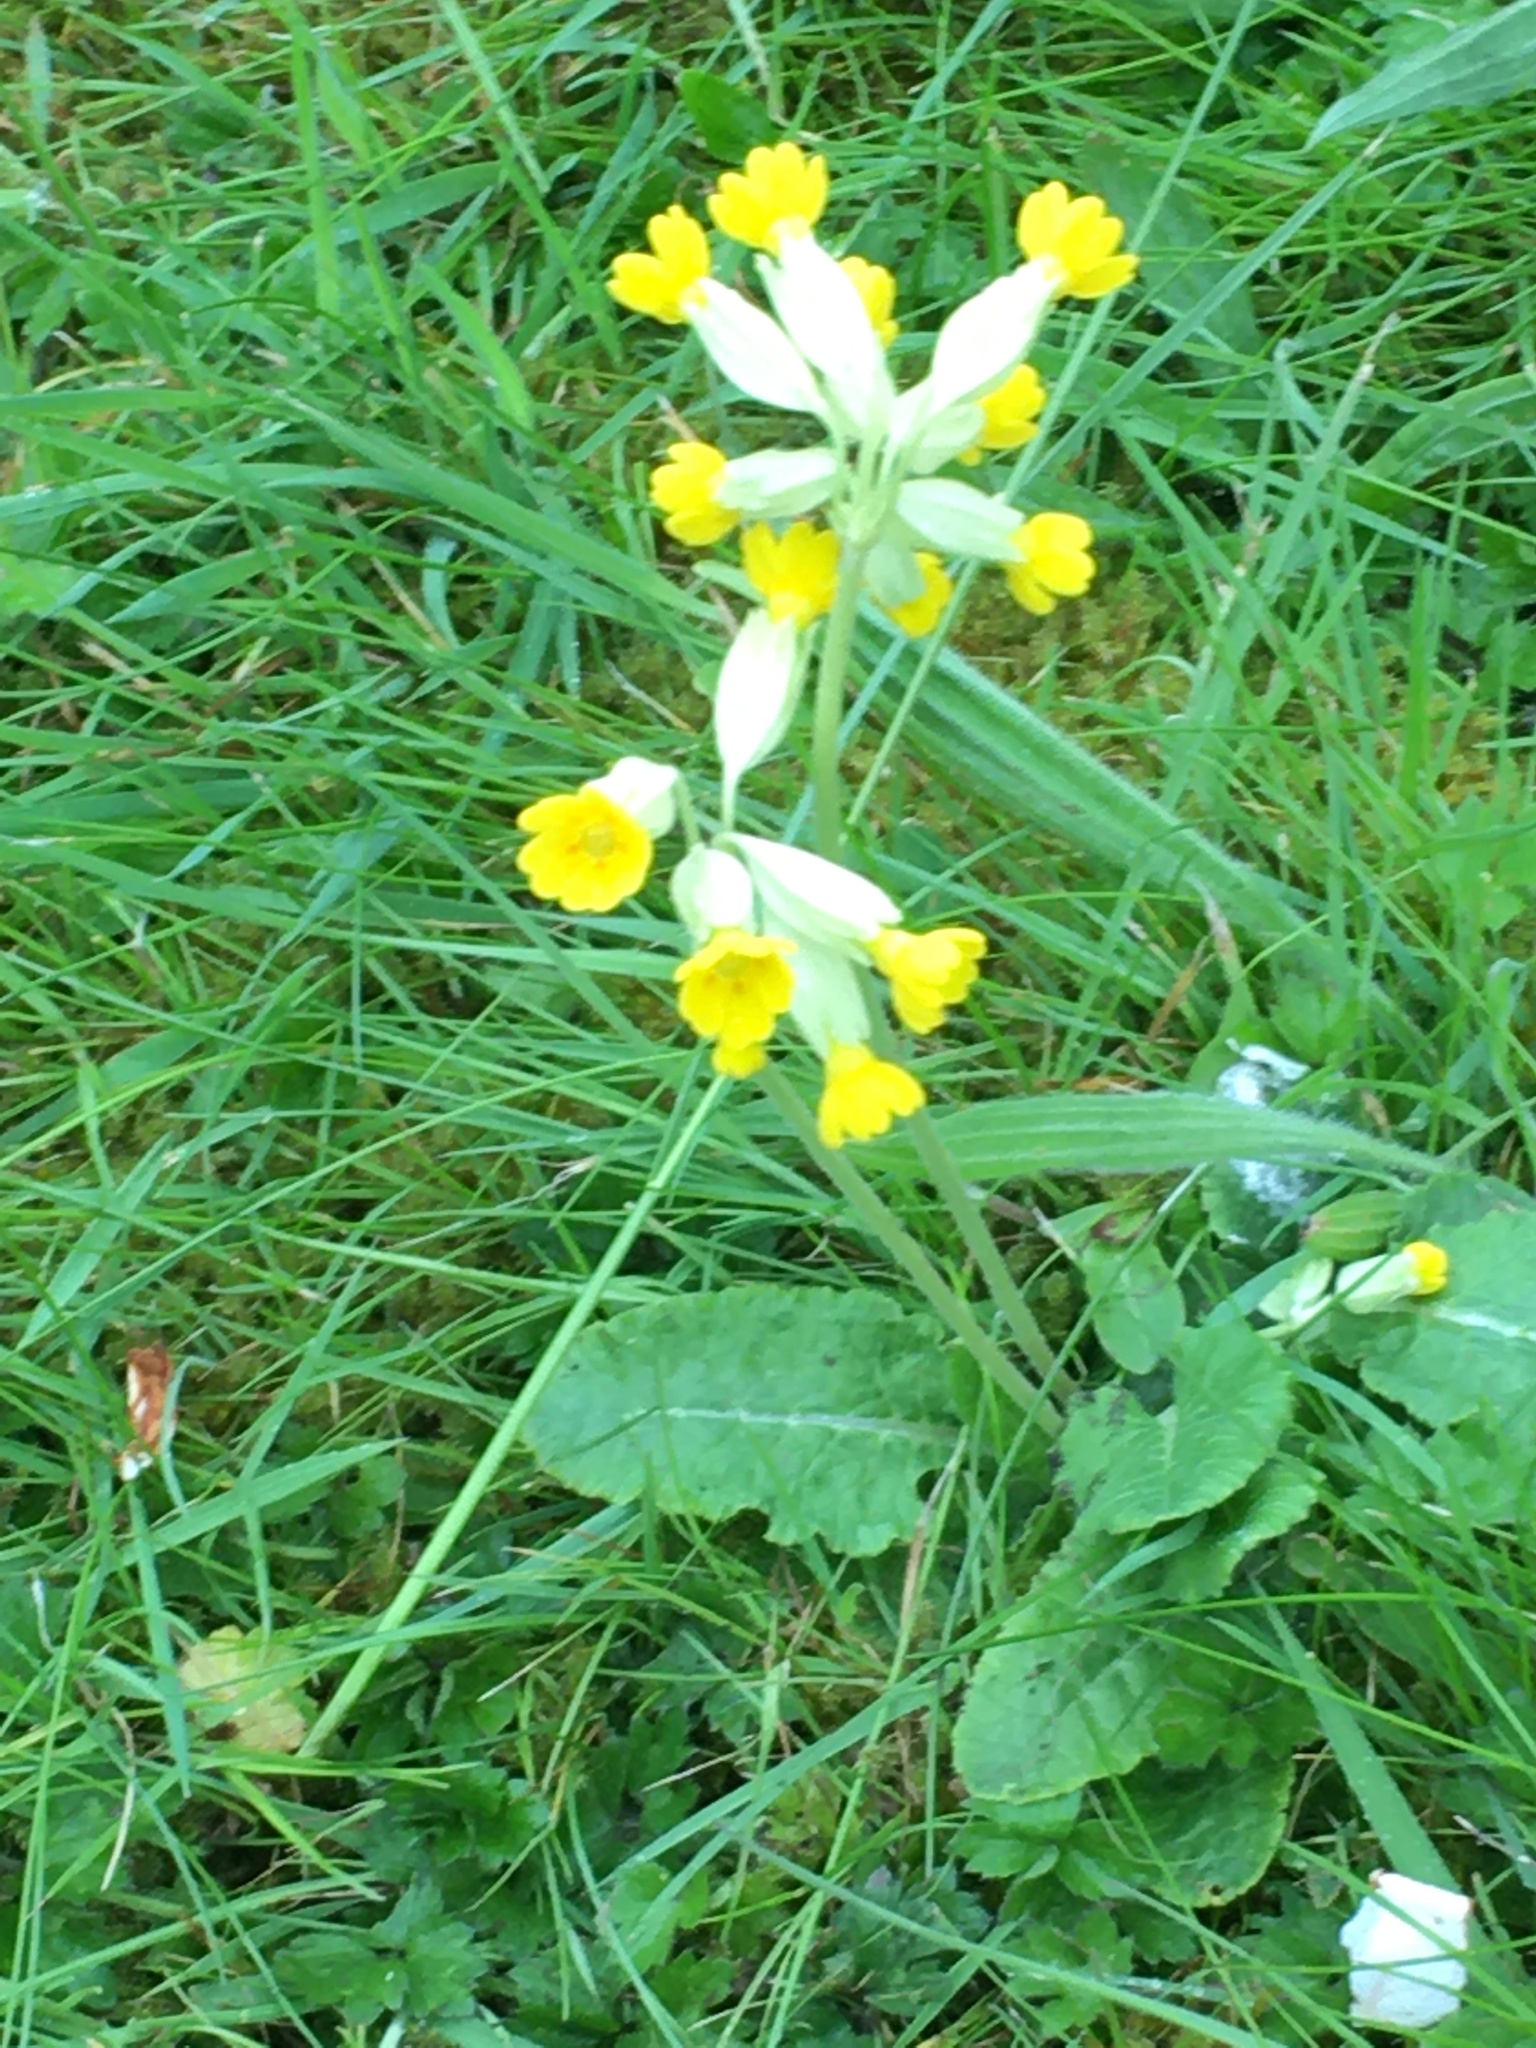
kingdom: Plantae
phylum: Tracheophyta
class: Magnoliopsida
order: Ericales
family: Primulaceae
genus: Primula
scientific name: Primula veris
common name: Cowslip
